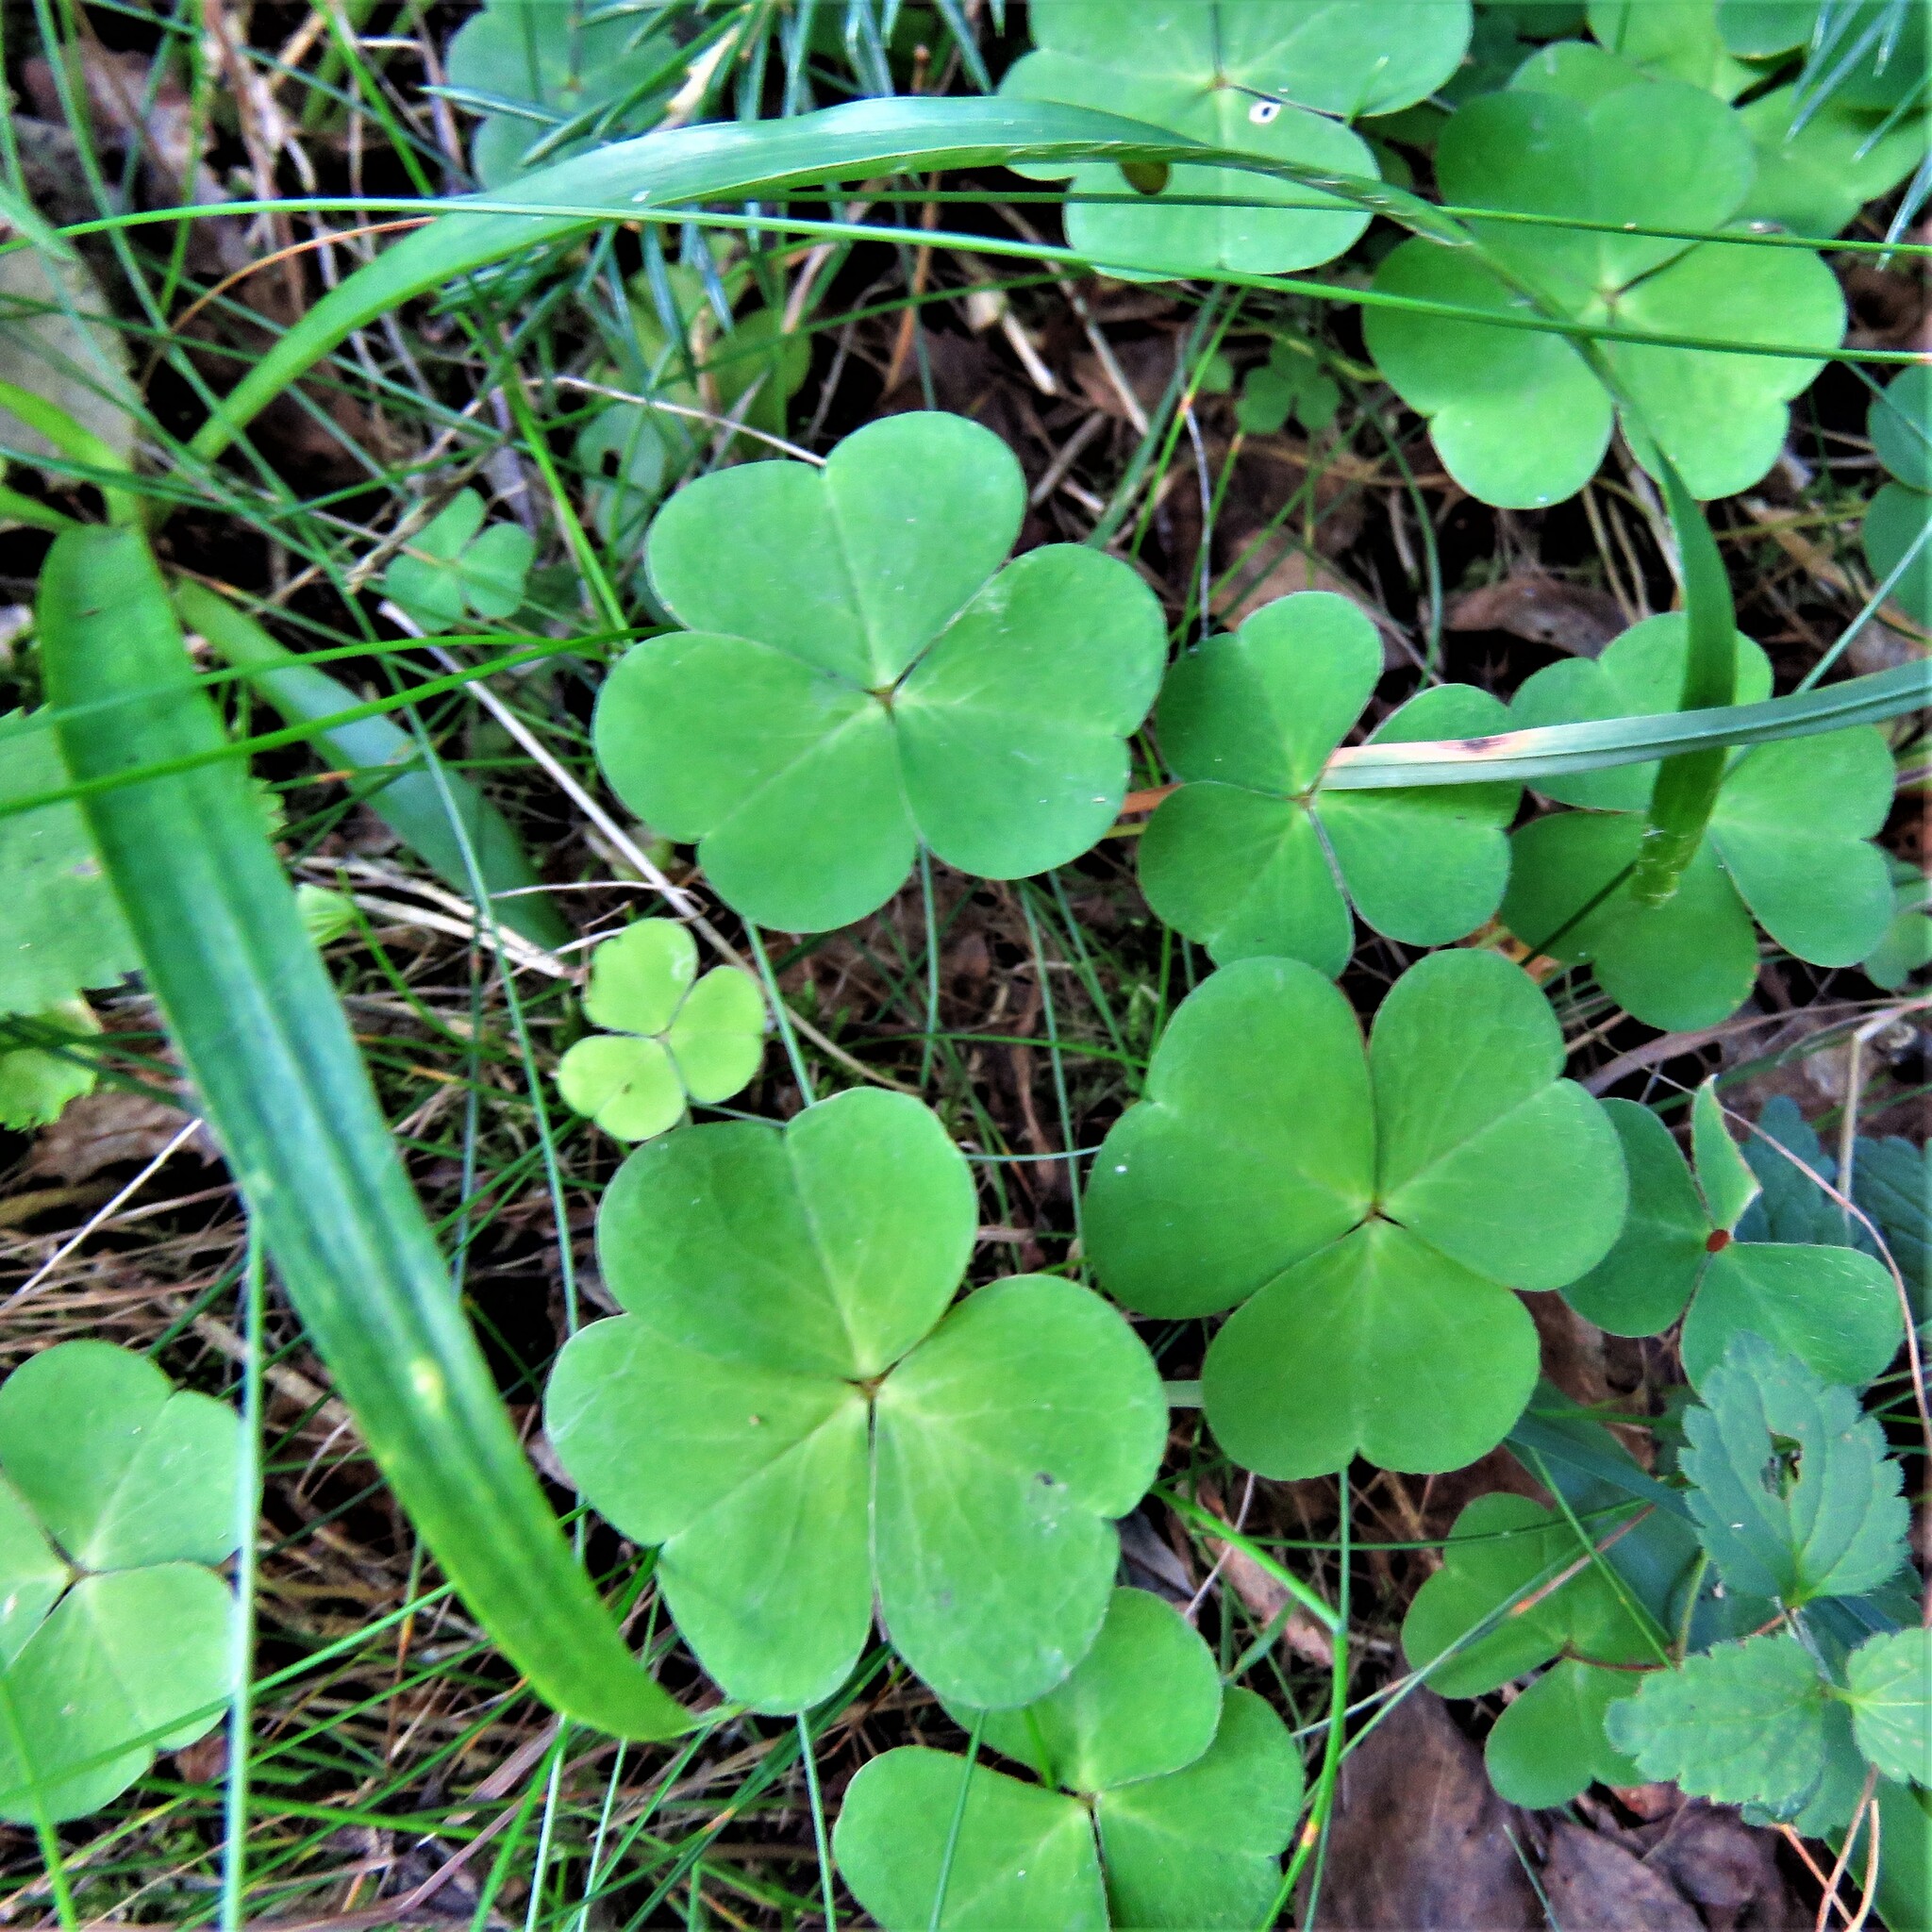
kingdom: Plantae
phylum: Tracheophyta
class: Magnoliopsida
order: Oxalidales
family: Oxalidaceae
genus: Oxalis
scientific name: Oxalis acetosella
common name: Wood-sorrel
